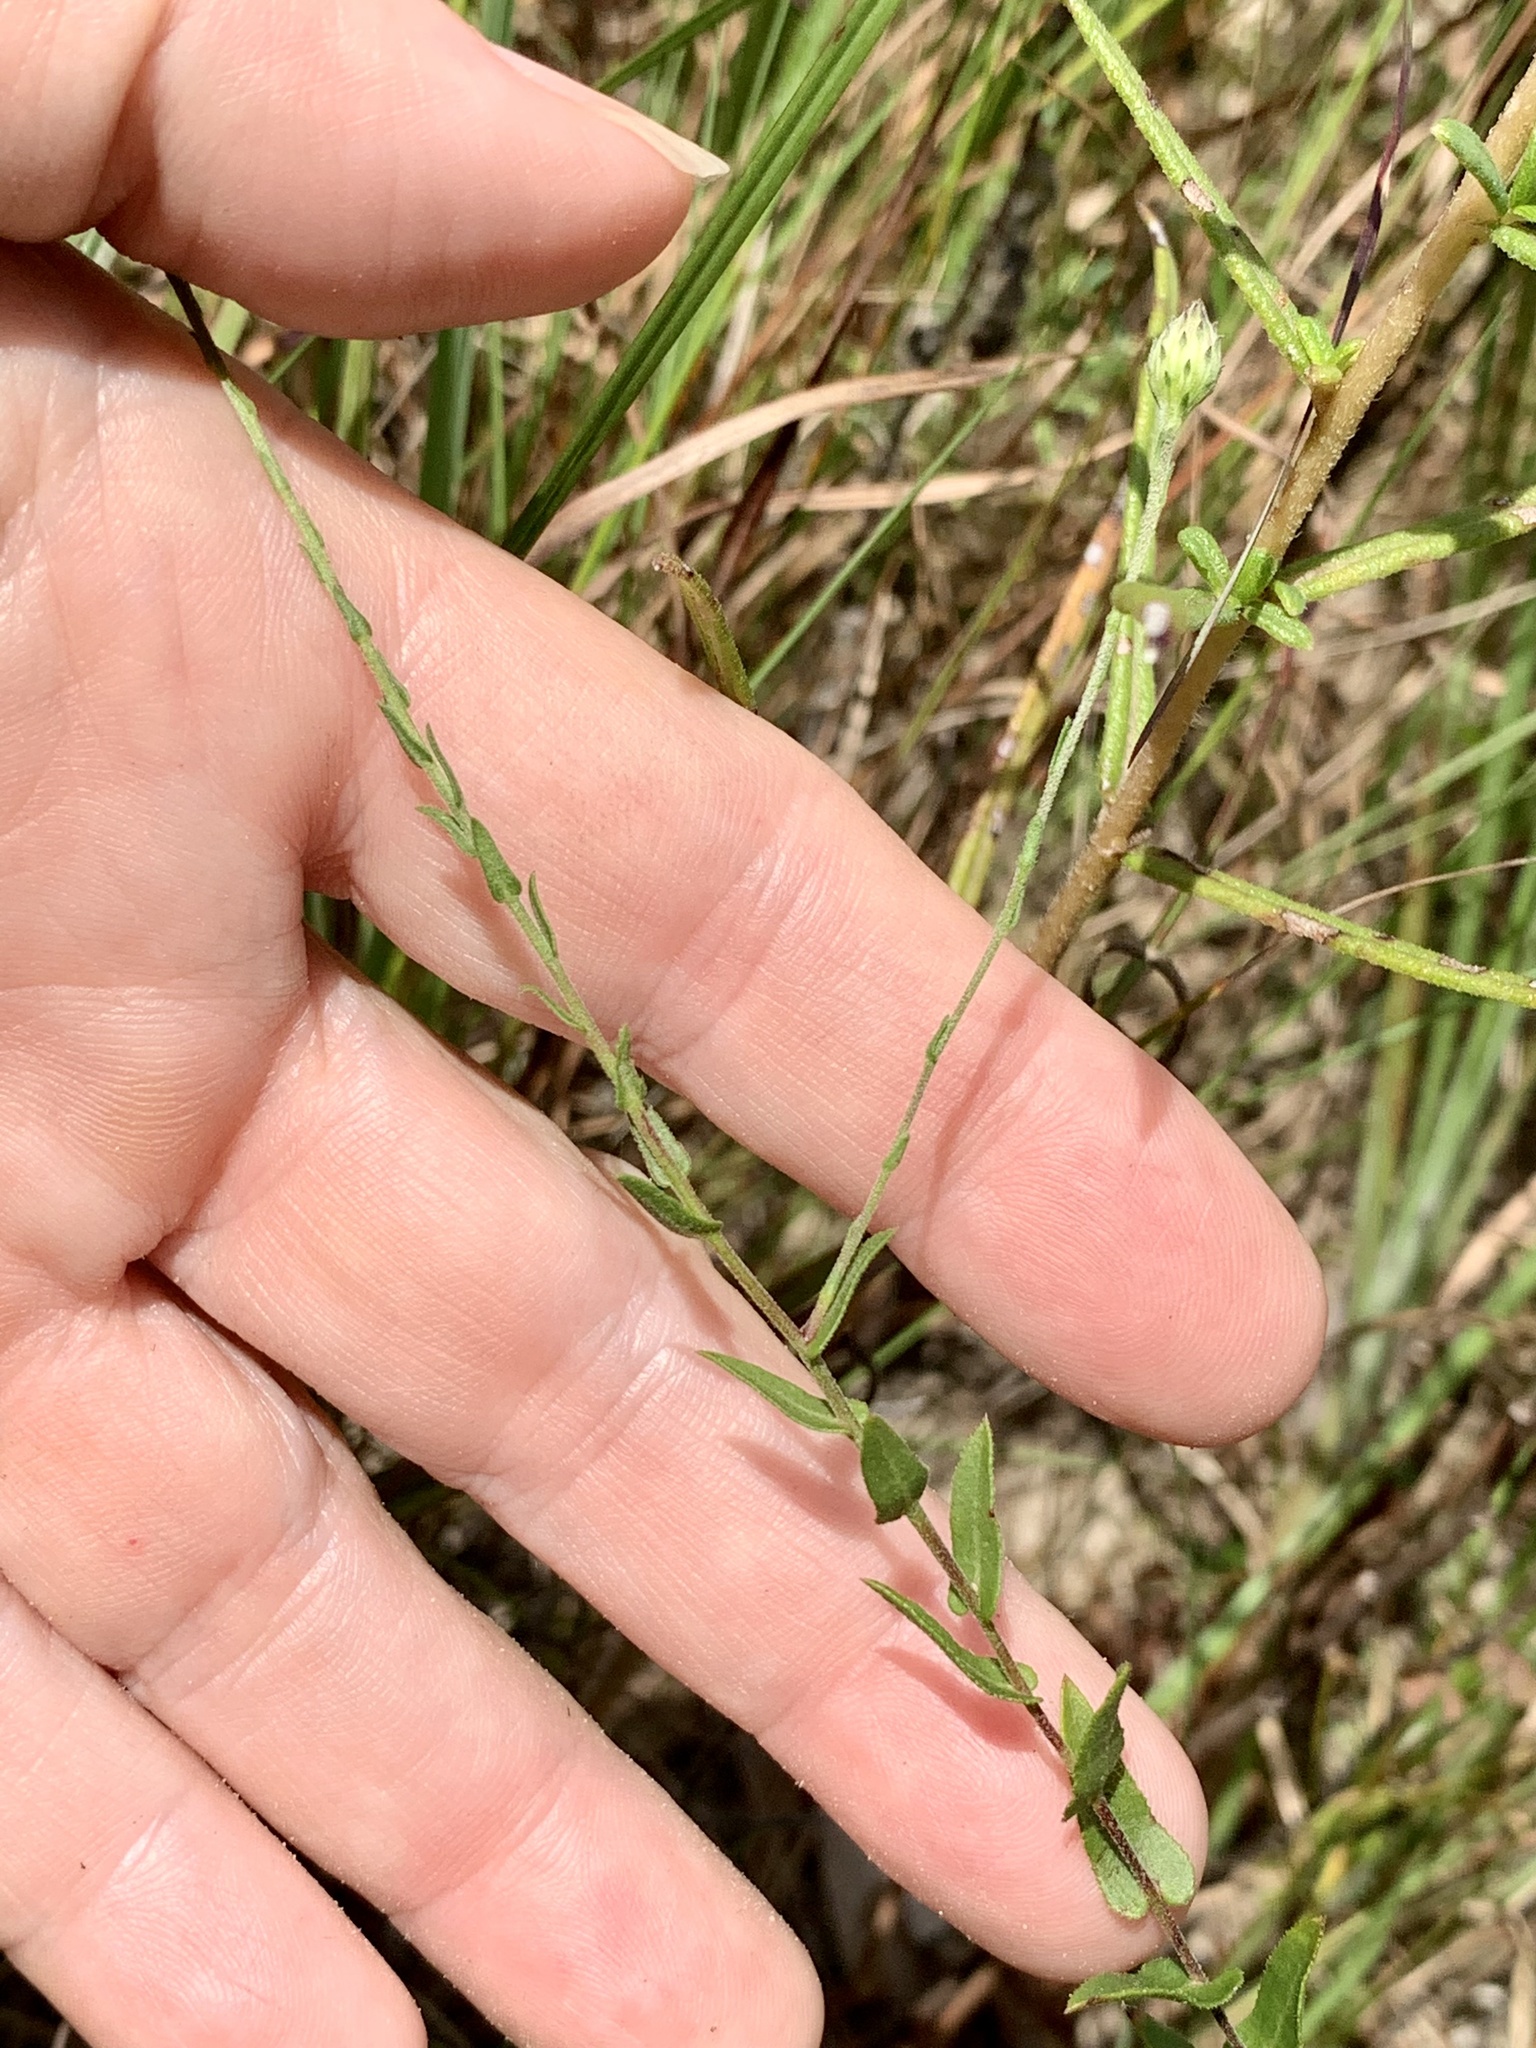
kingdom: Plantae
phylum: Tracheophyta
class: Magnoliopsida
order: Asterales
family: Asteraceae
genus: Symphyotrichum
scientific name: Symphyotrichum patens
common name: Late purple aster
